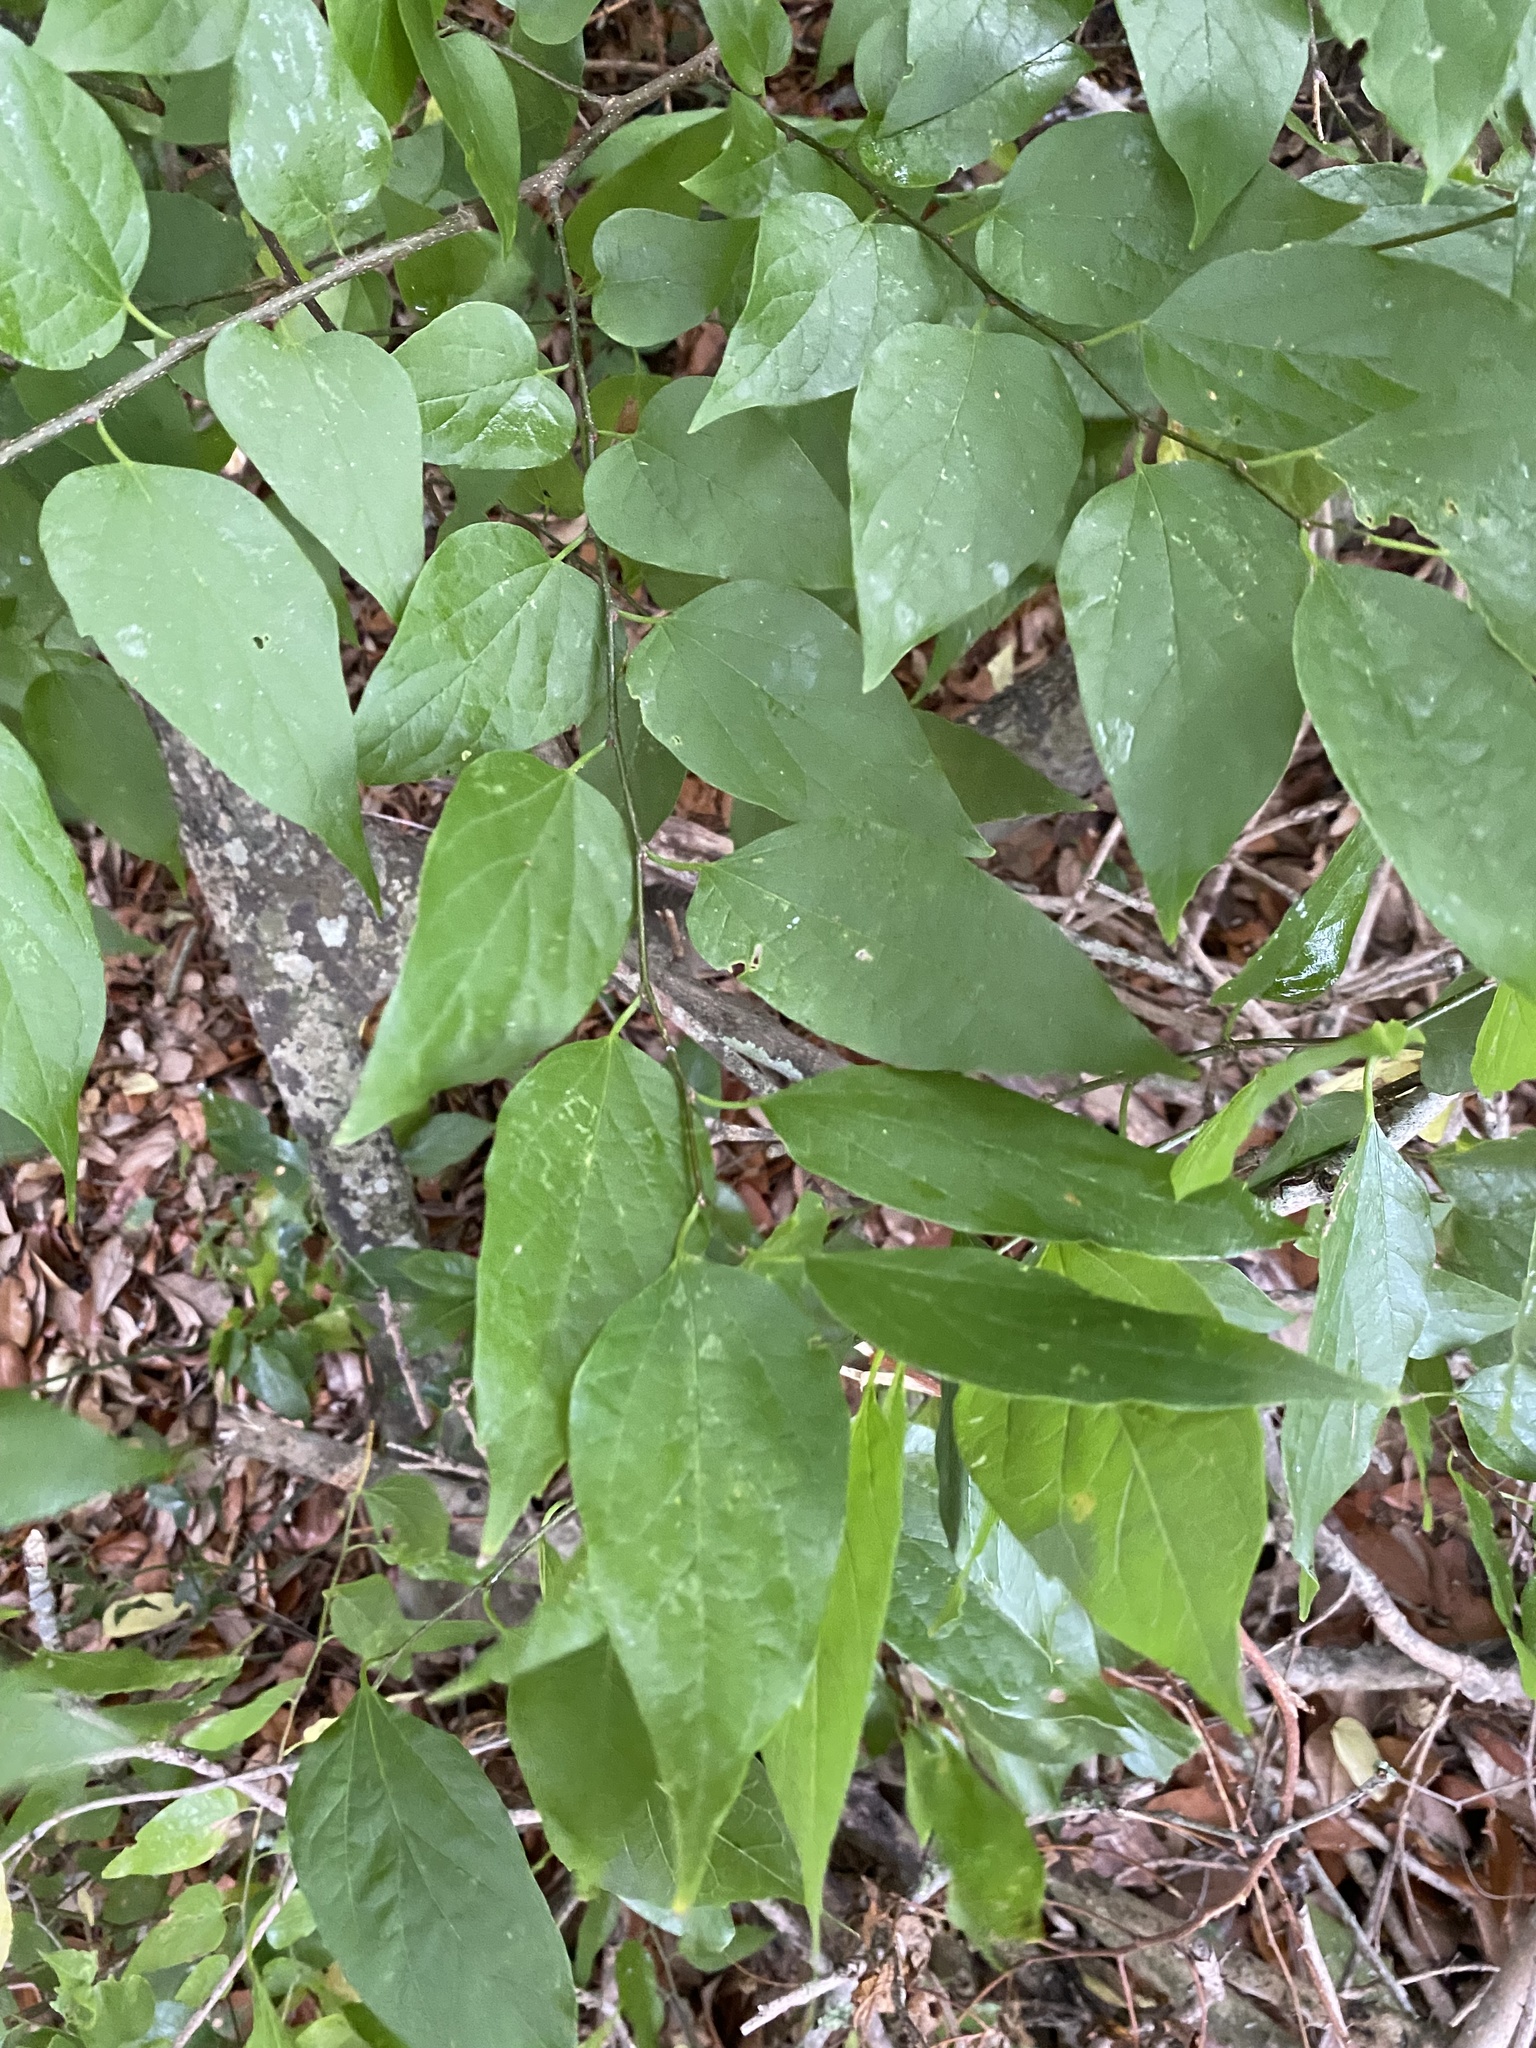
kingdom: Plantae
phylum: Tracheophyta
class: Magnoliopsida
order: Rosales
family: Cannabaceae
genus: Celtis
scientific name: Celtis laevigata
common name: Sugarberry
